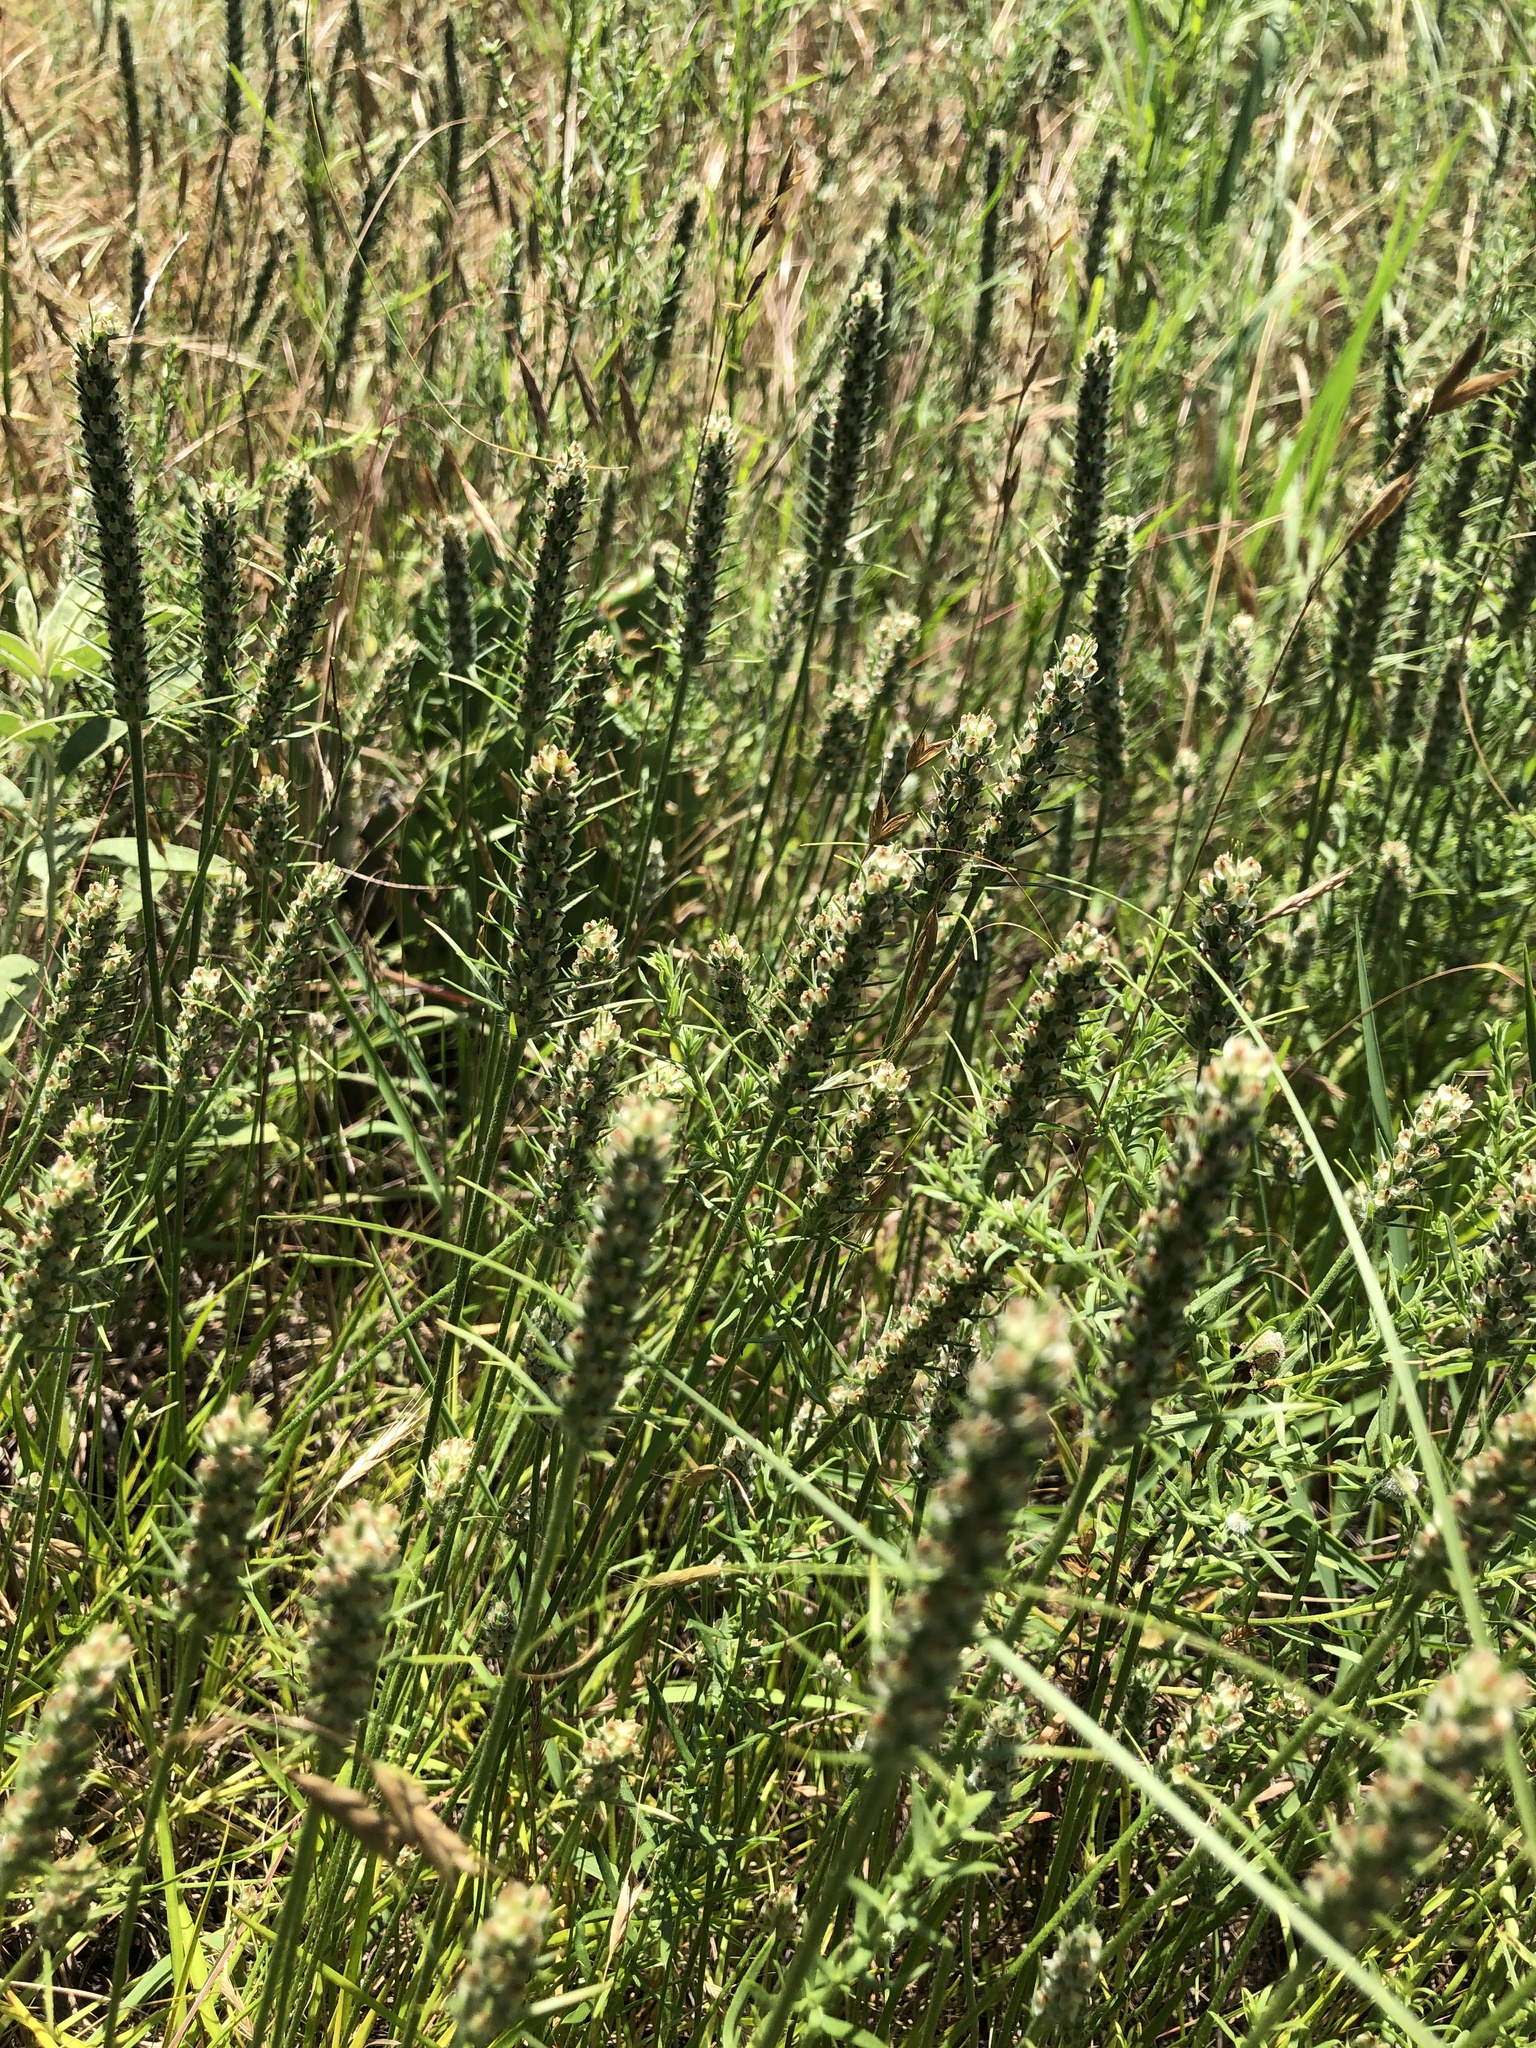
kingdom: Plantae
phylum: Tracheophyta
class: Magnoliopsida
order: Lamiales
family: Plantaginaceae
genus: Plantago
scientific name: Plantago aristata
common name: Bracted plantain
